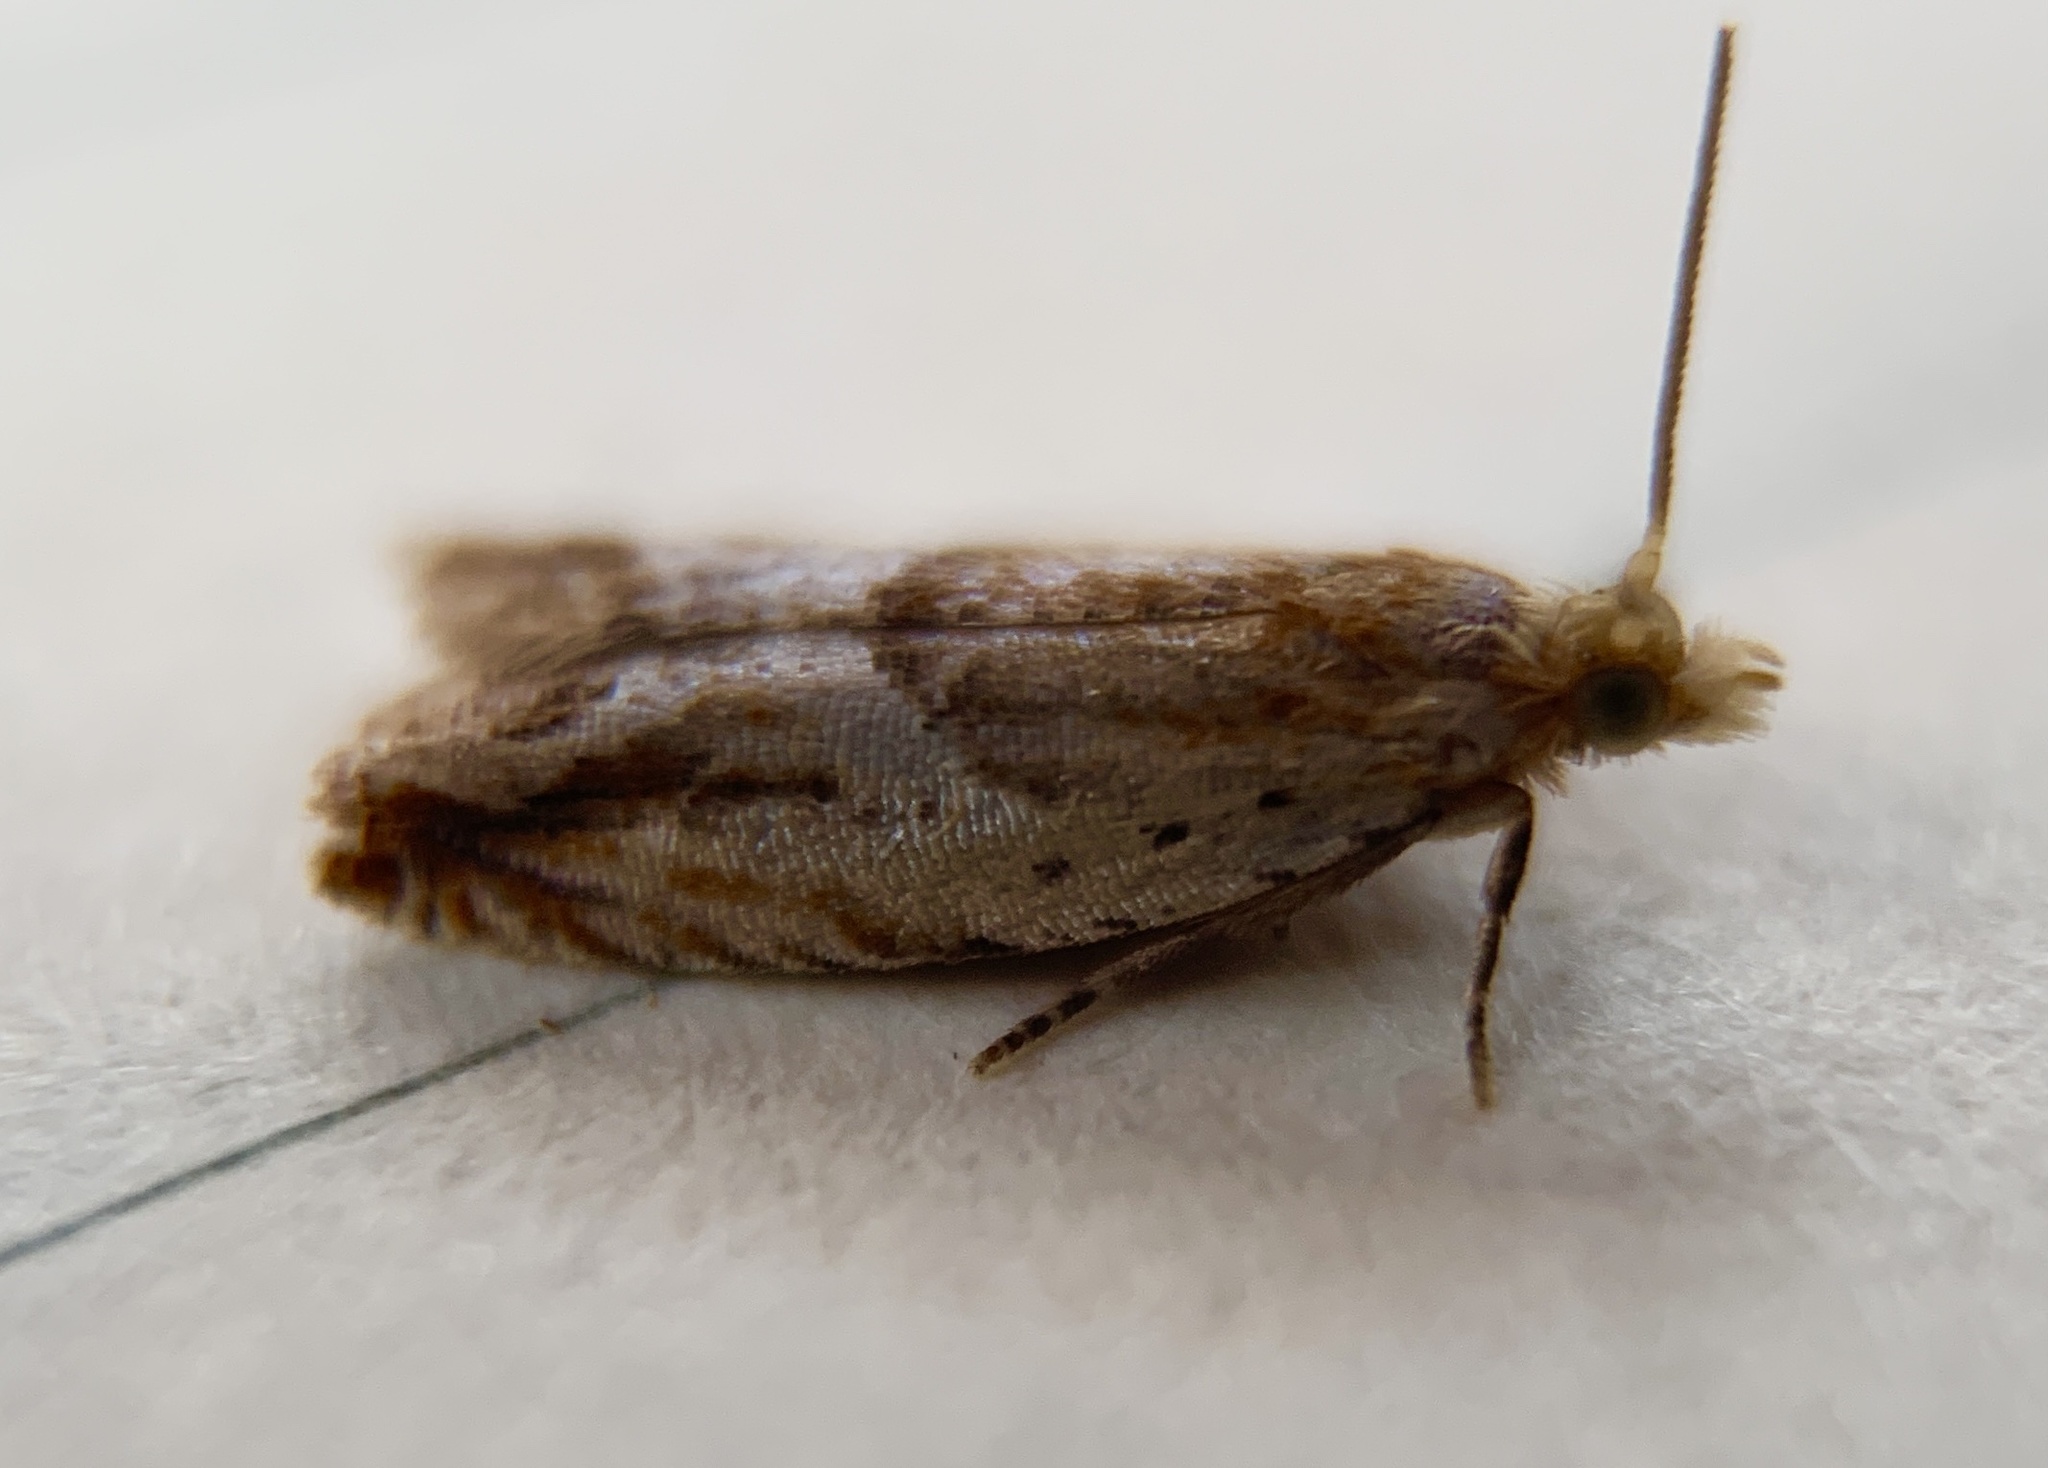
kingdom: Animalia
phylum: Arthropoda
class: Insecta
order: Lepidoptera
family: Tortricidae
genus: Ancylis
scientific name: Ancylis comptana
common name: Little roller
